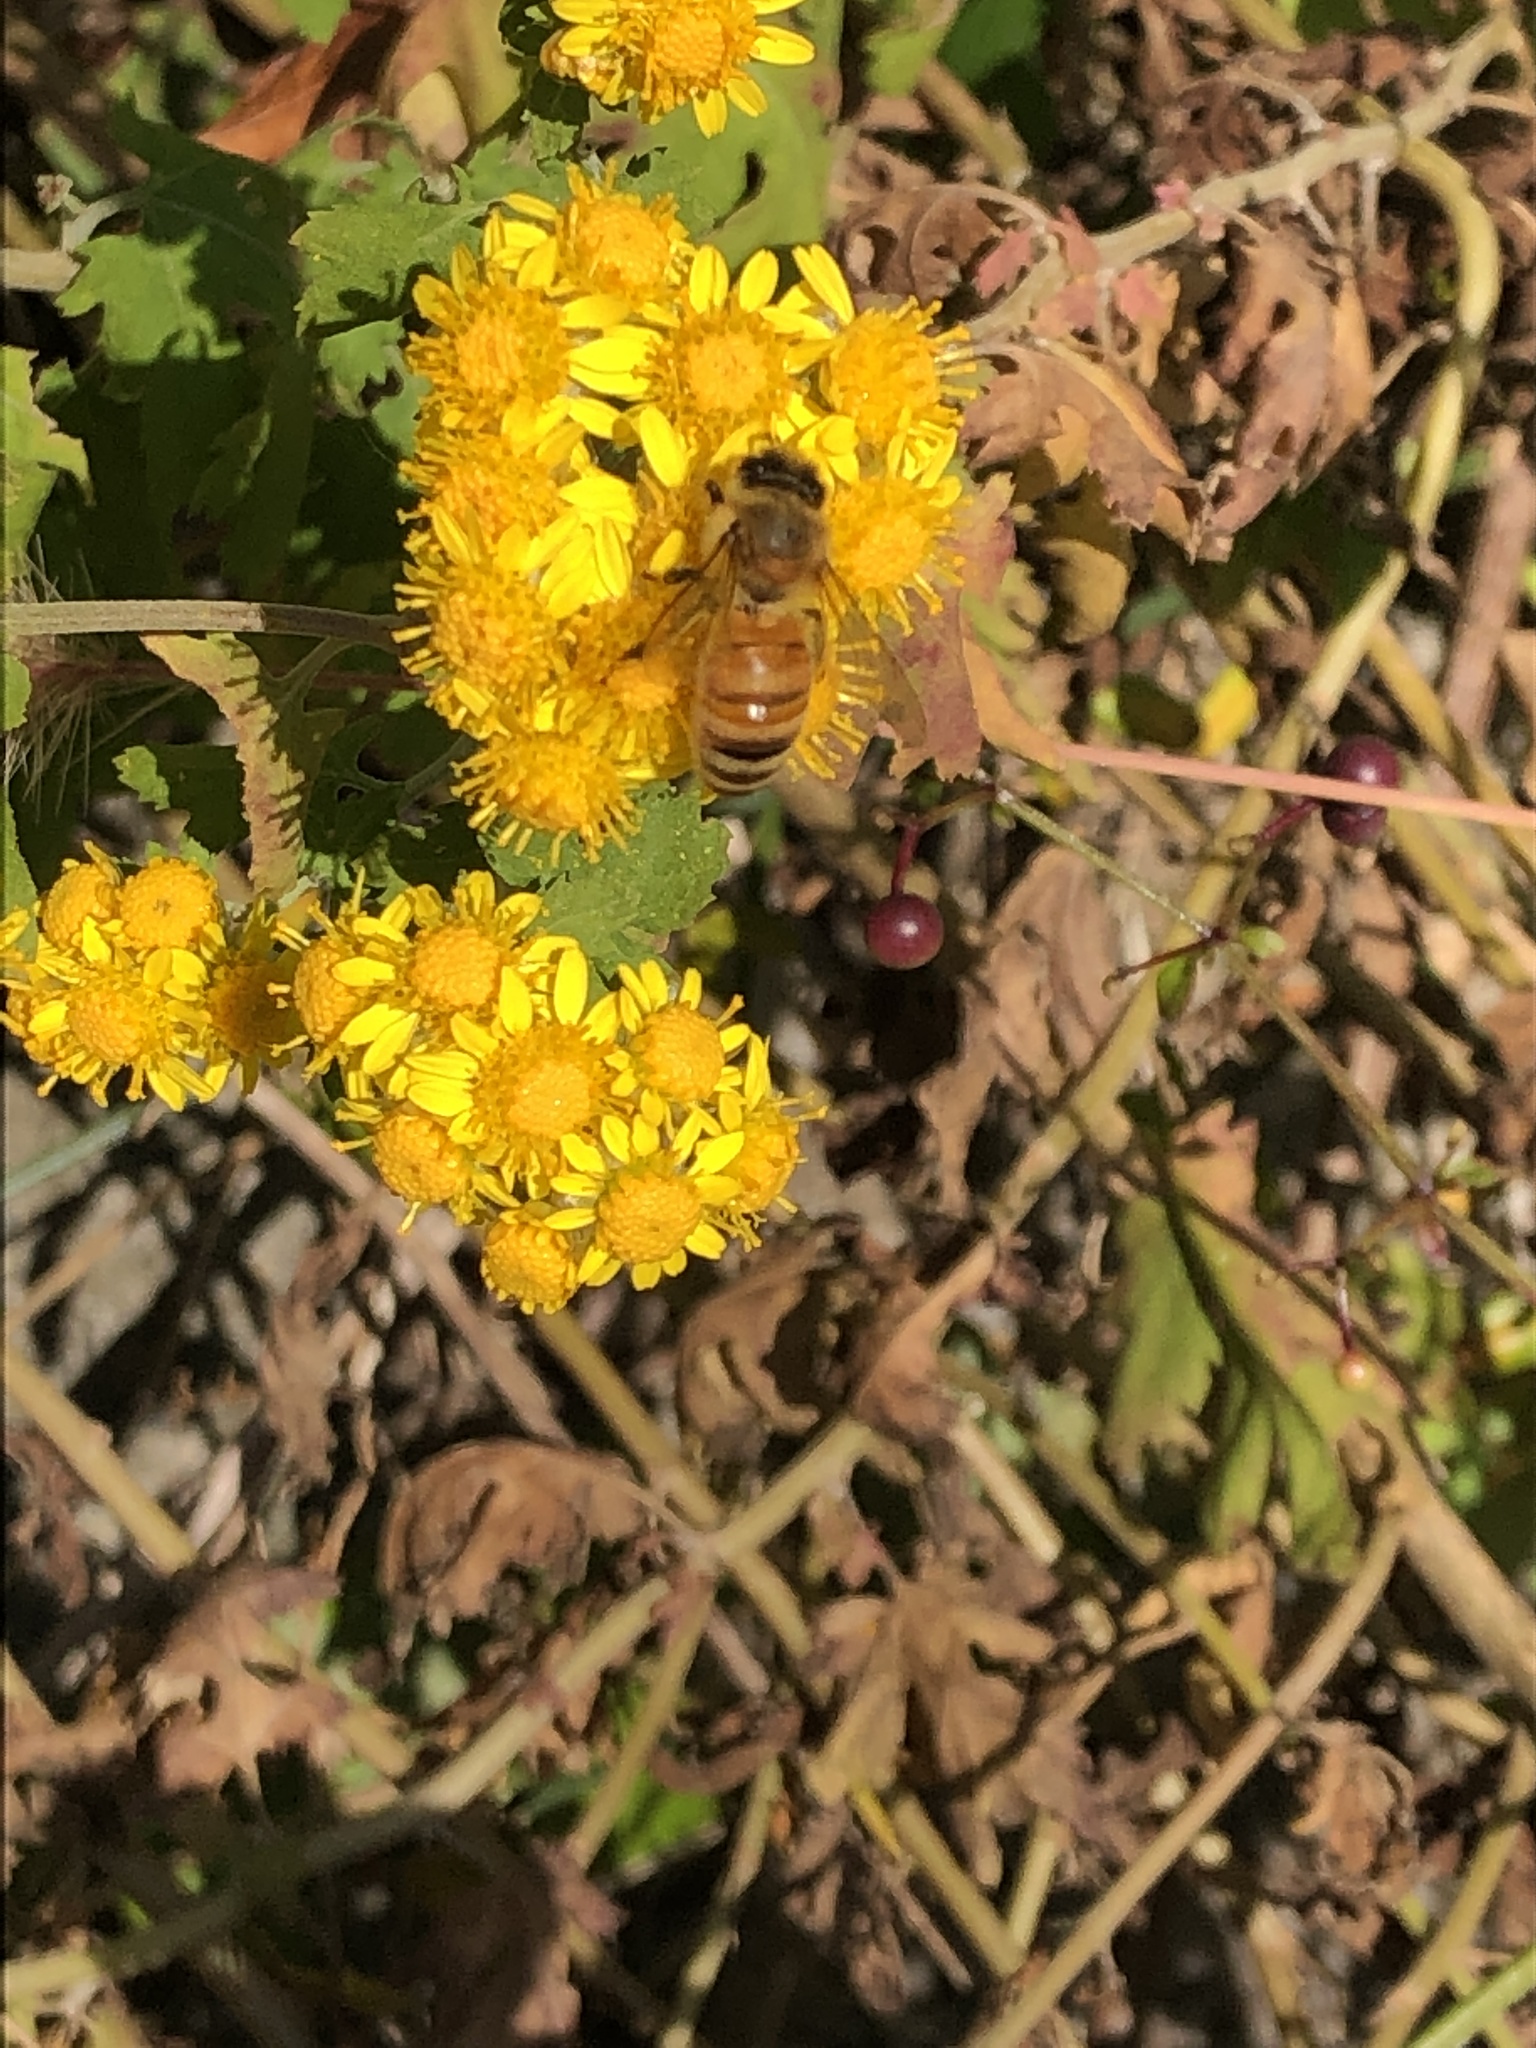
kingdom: Animalia
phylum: Arthropoda
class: Insecta
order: Hymenoptera
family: Apidae
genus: Apis
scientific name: Apis mellifera
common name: Honey bee
